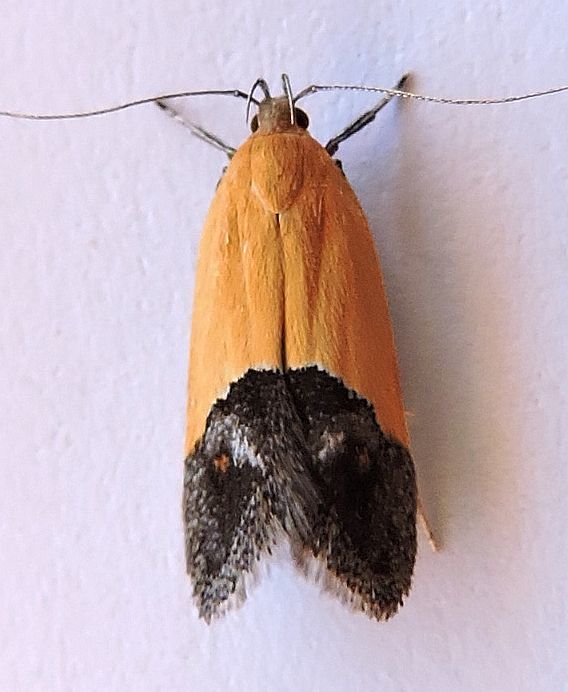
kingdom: Animalia
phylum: Arthropoda
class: Insecta
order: Lepidoptera
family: Momphidae
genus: Triclonella
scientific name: Triclonella xuthocelis
